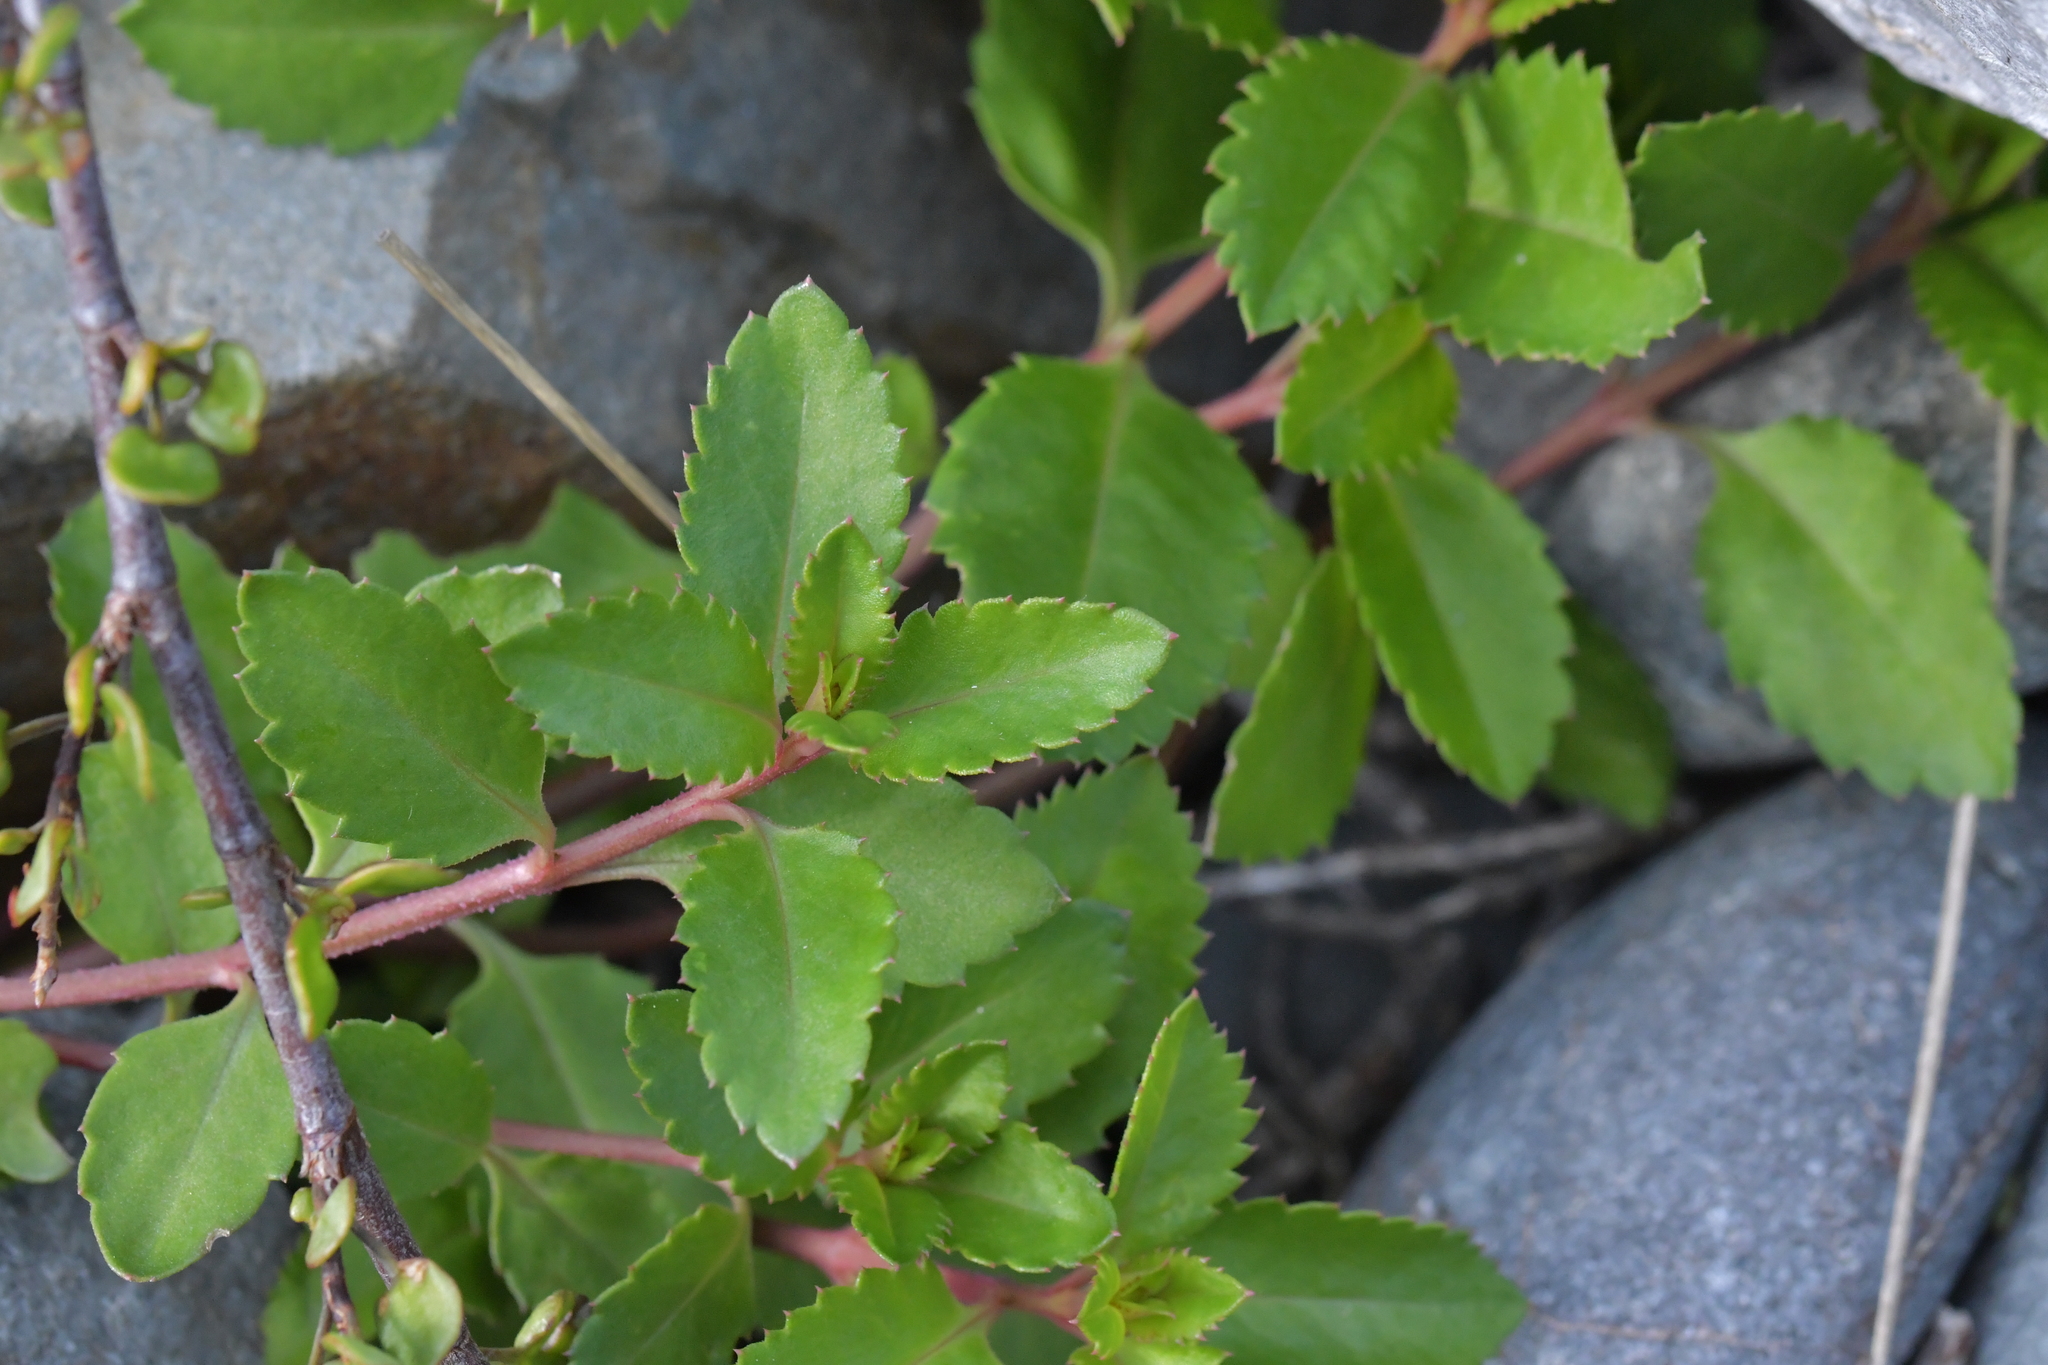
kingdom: Plantae
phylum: Tracheophyta
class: Magnoliopsida
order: Saxifragales
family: Haloragaceae
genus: Haloragis
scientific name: Haloragis erecta
